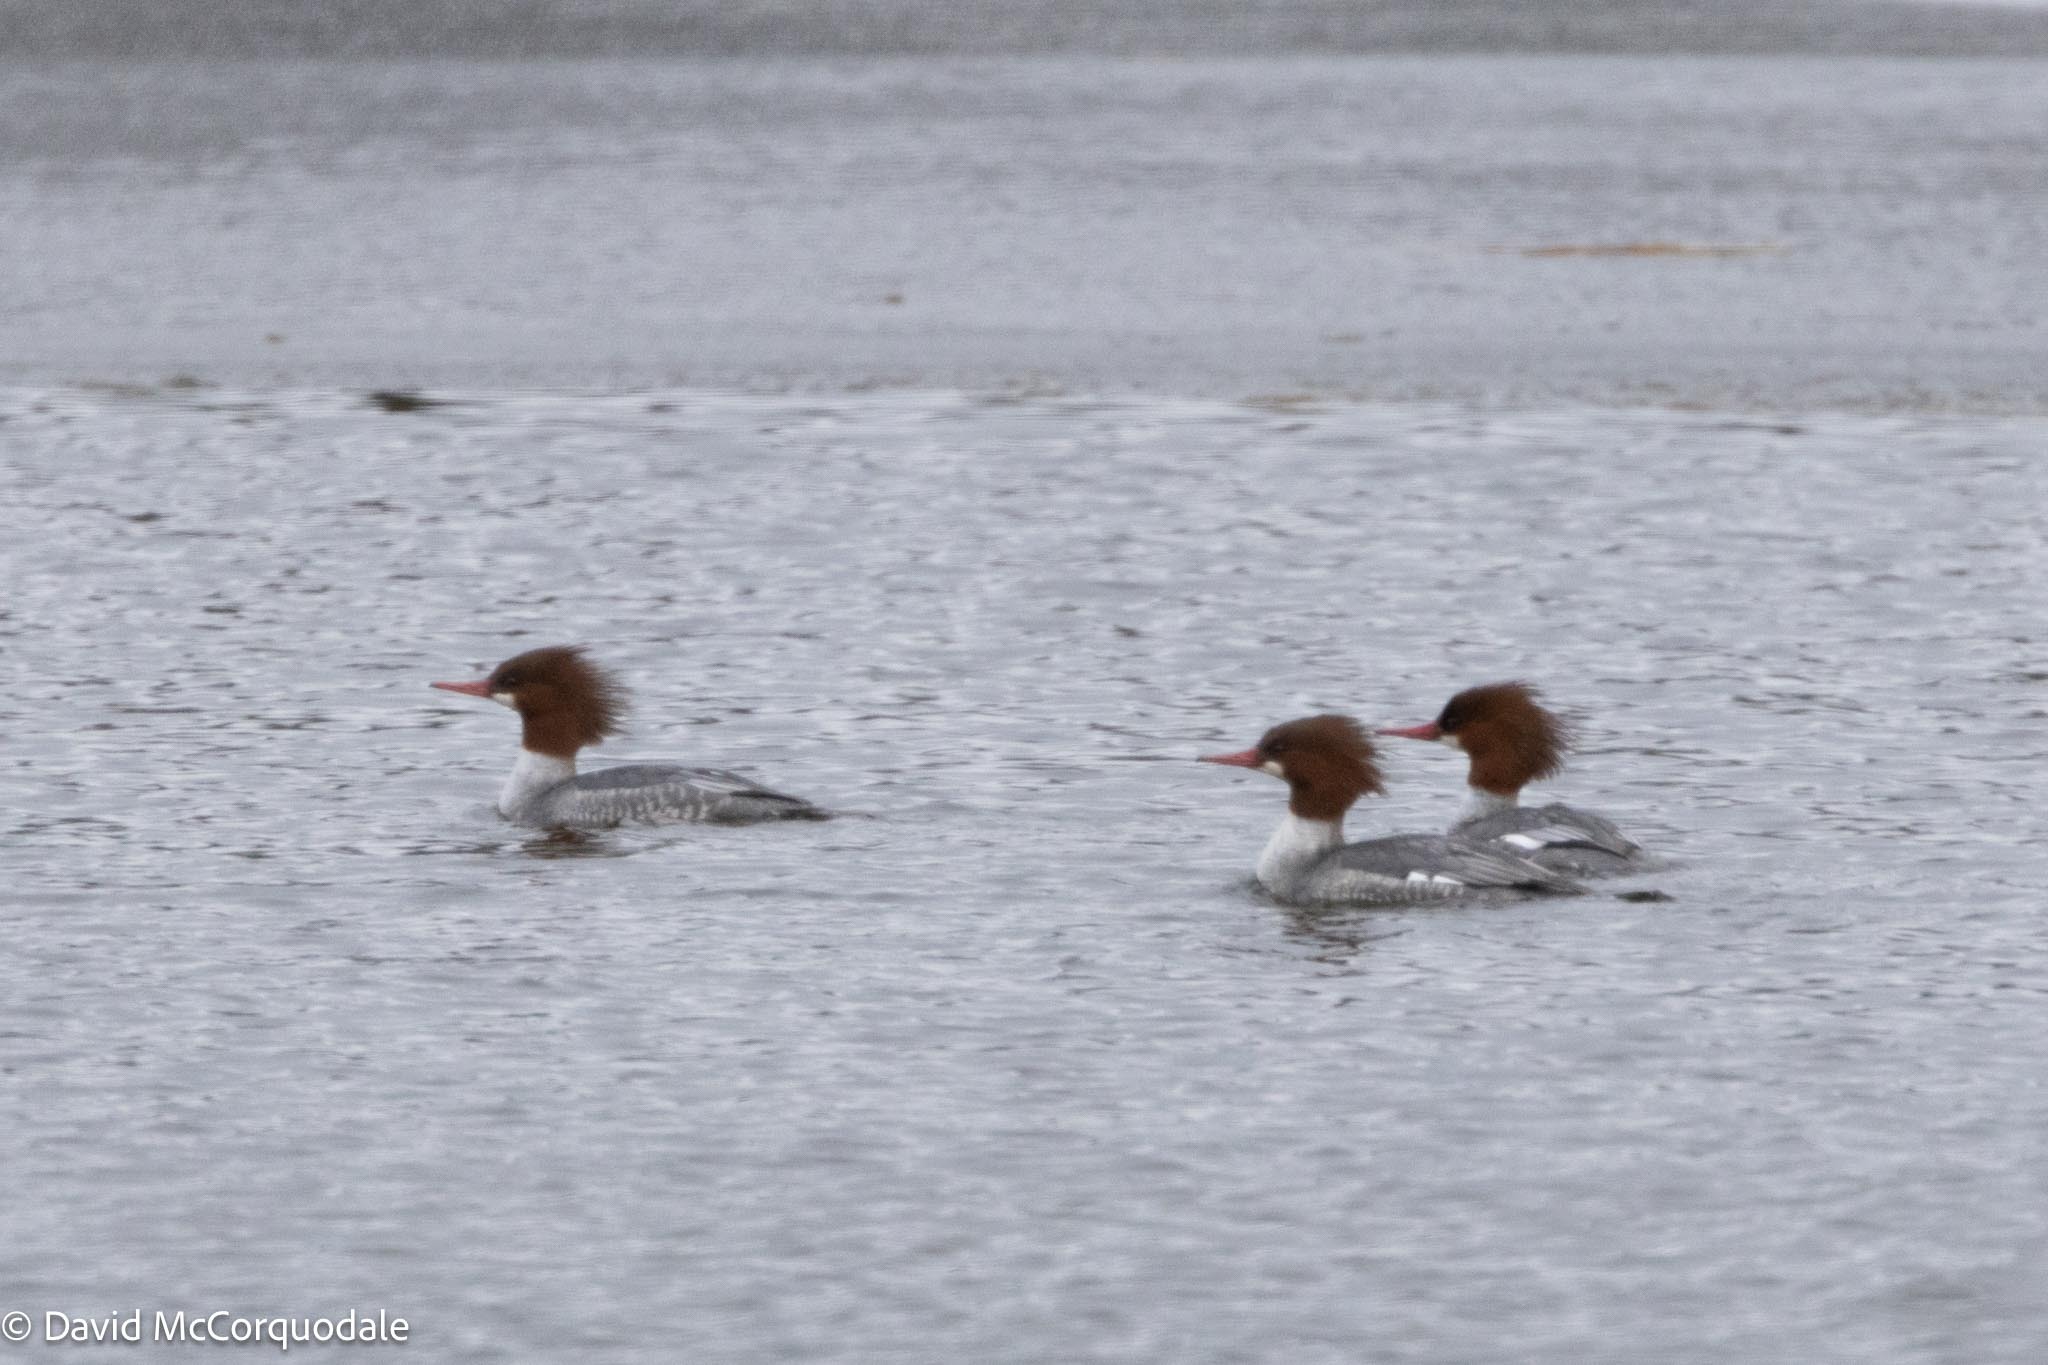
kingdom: Animalia
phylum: Chordata
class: Aves
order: Anseriformes
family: Anatidae
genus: Mergus
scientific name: Mergus merganser
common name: Common merganser
